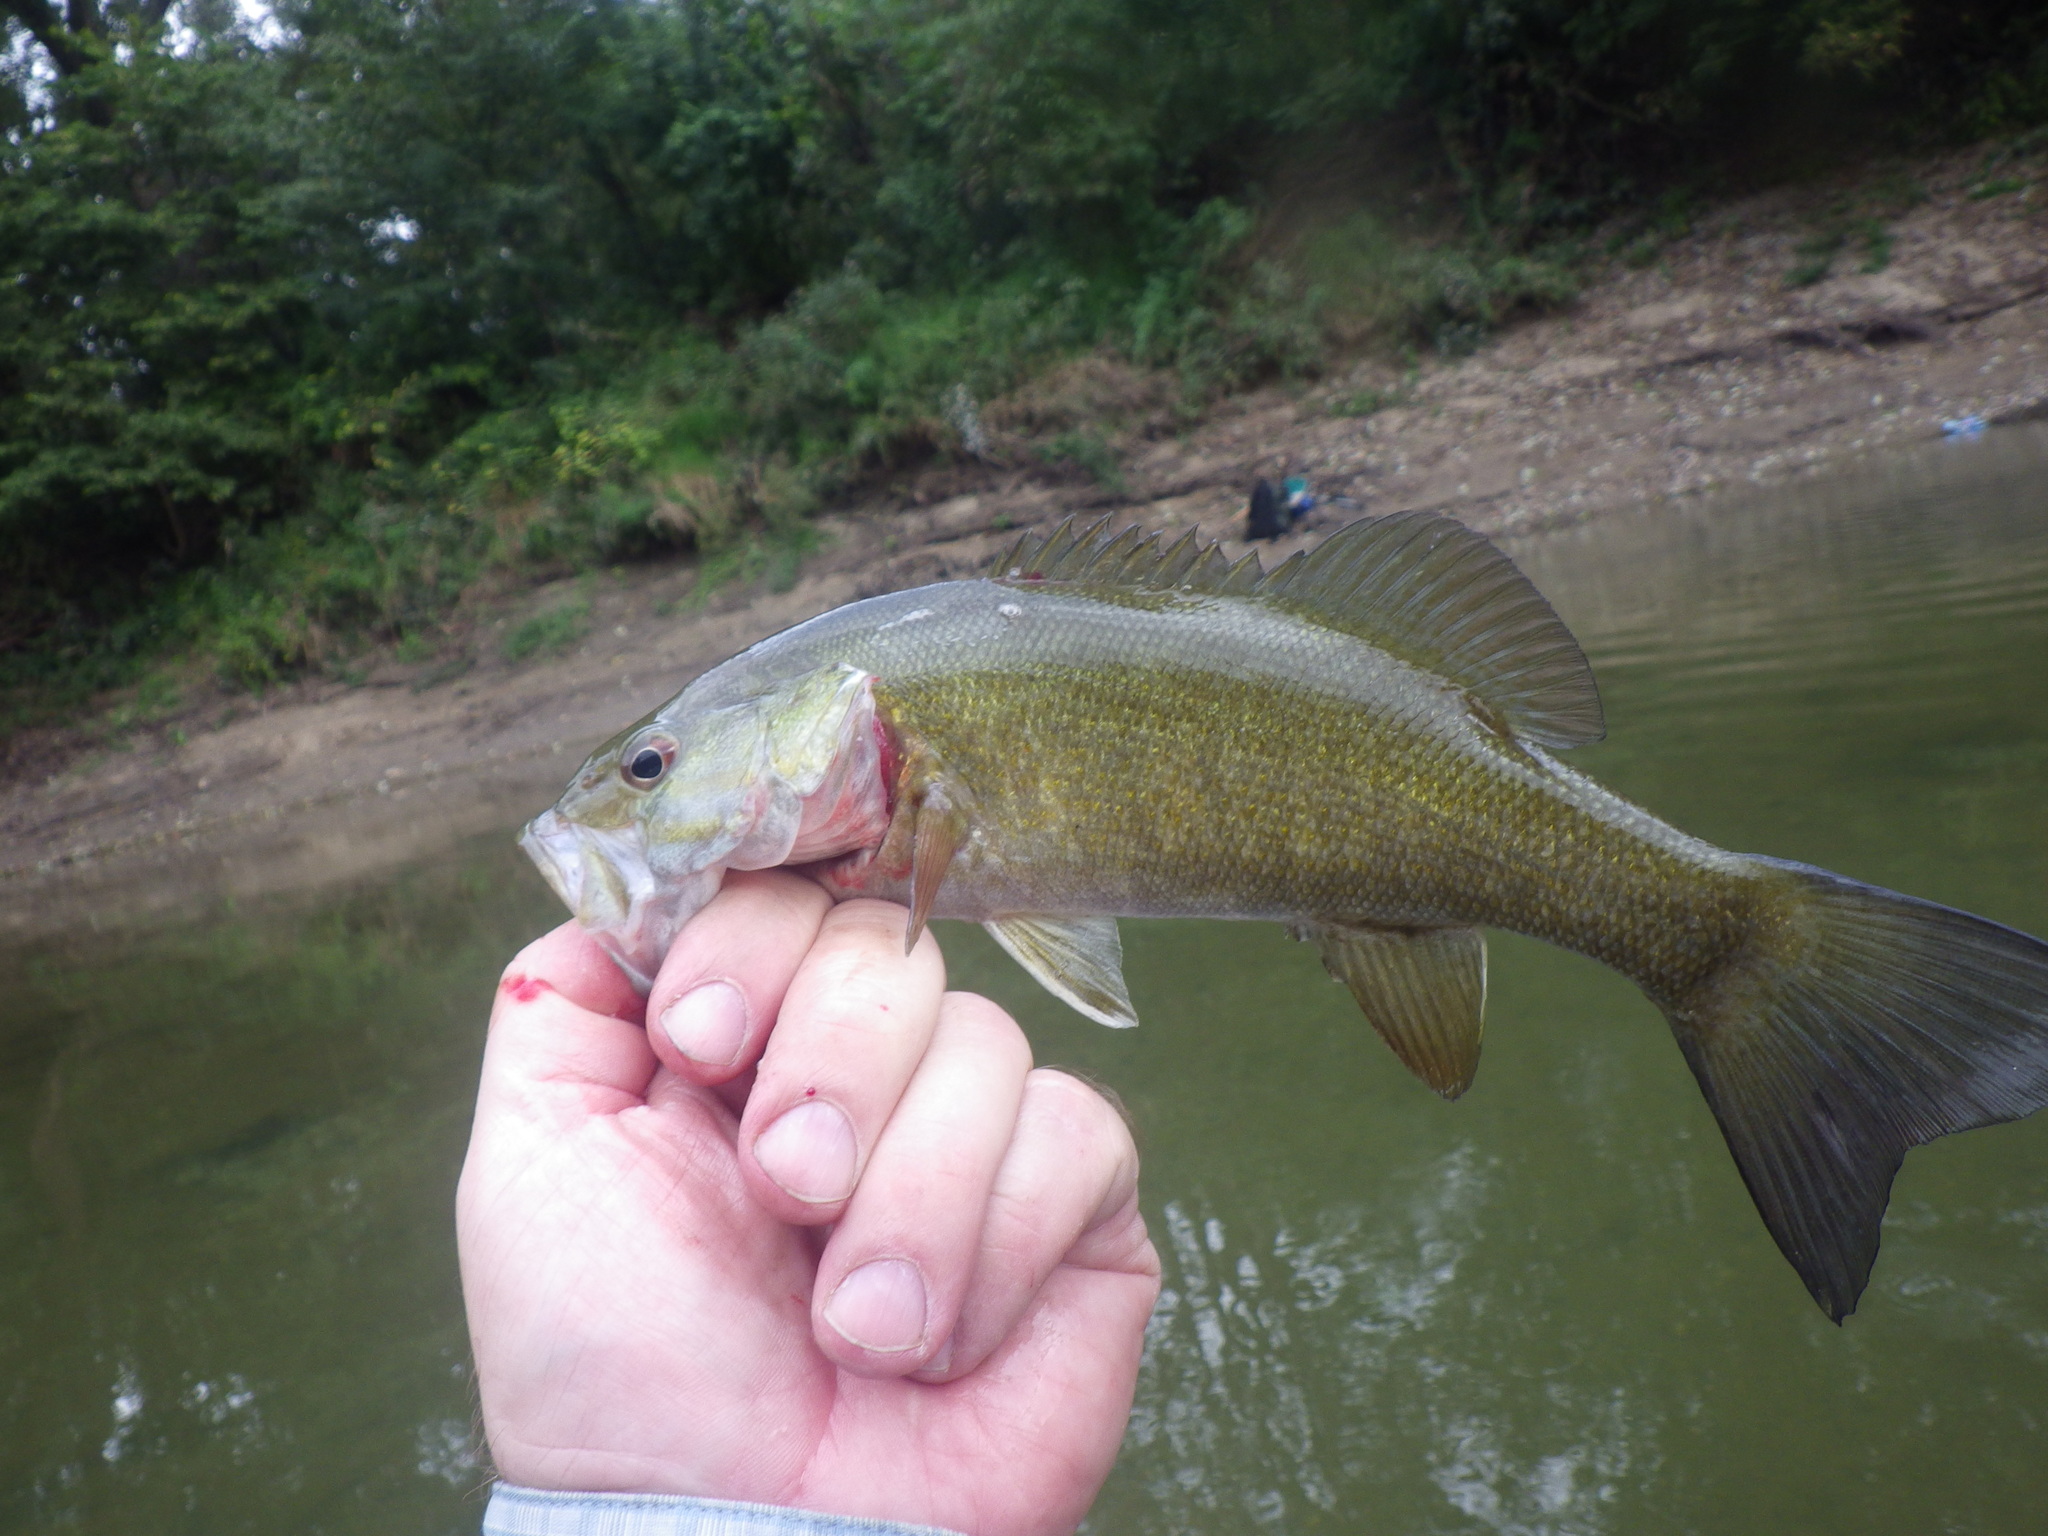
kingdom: Animalia
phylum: Chordata
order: Perciformes
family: Centrarchidae
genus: Micropterus
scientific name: Micropterus dolomieu
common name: Smallmouth bass
